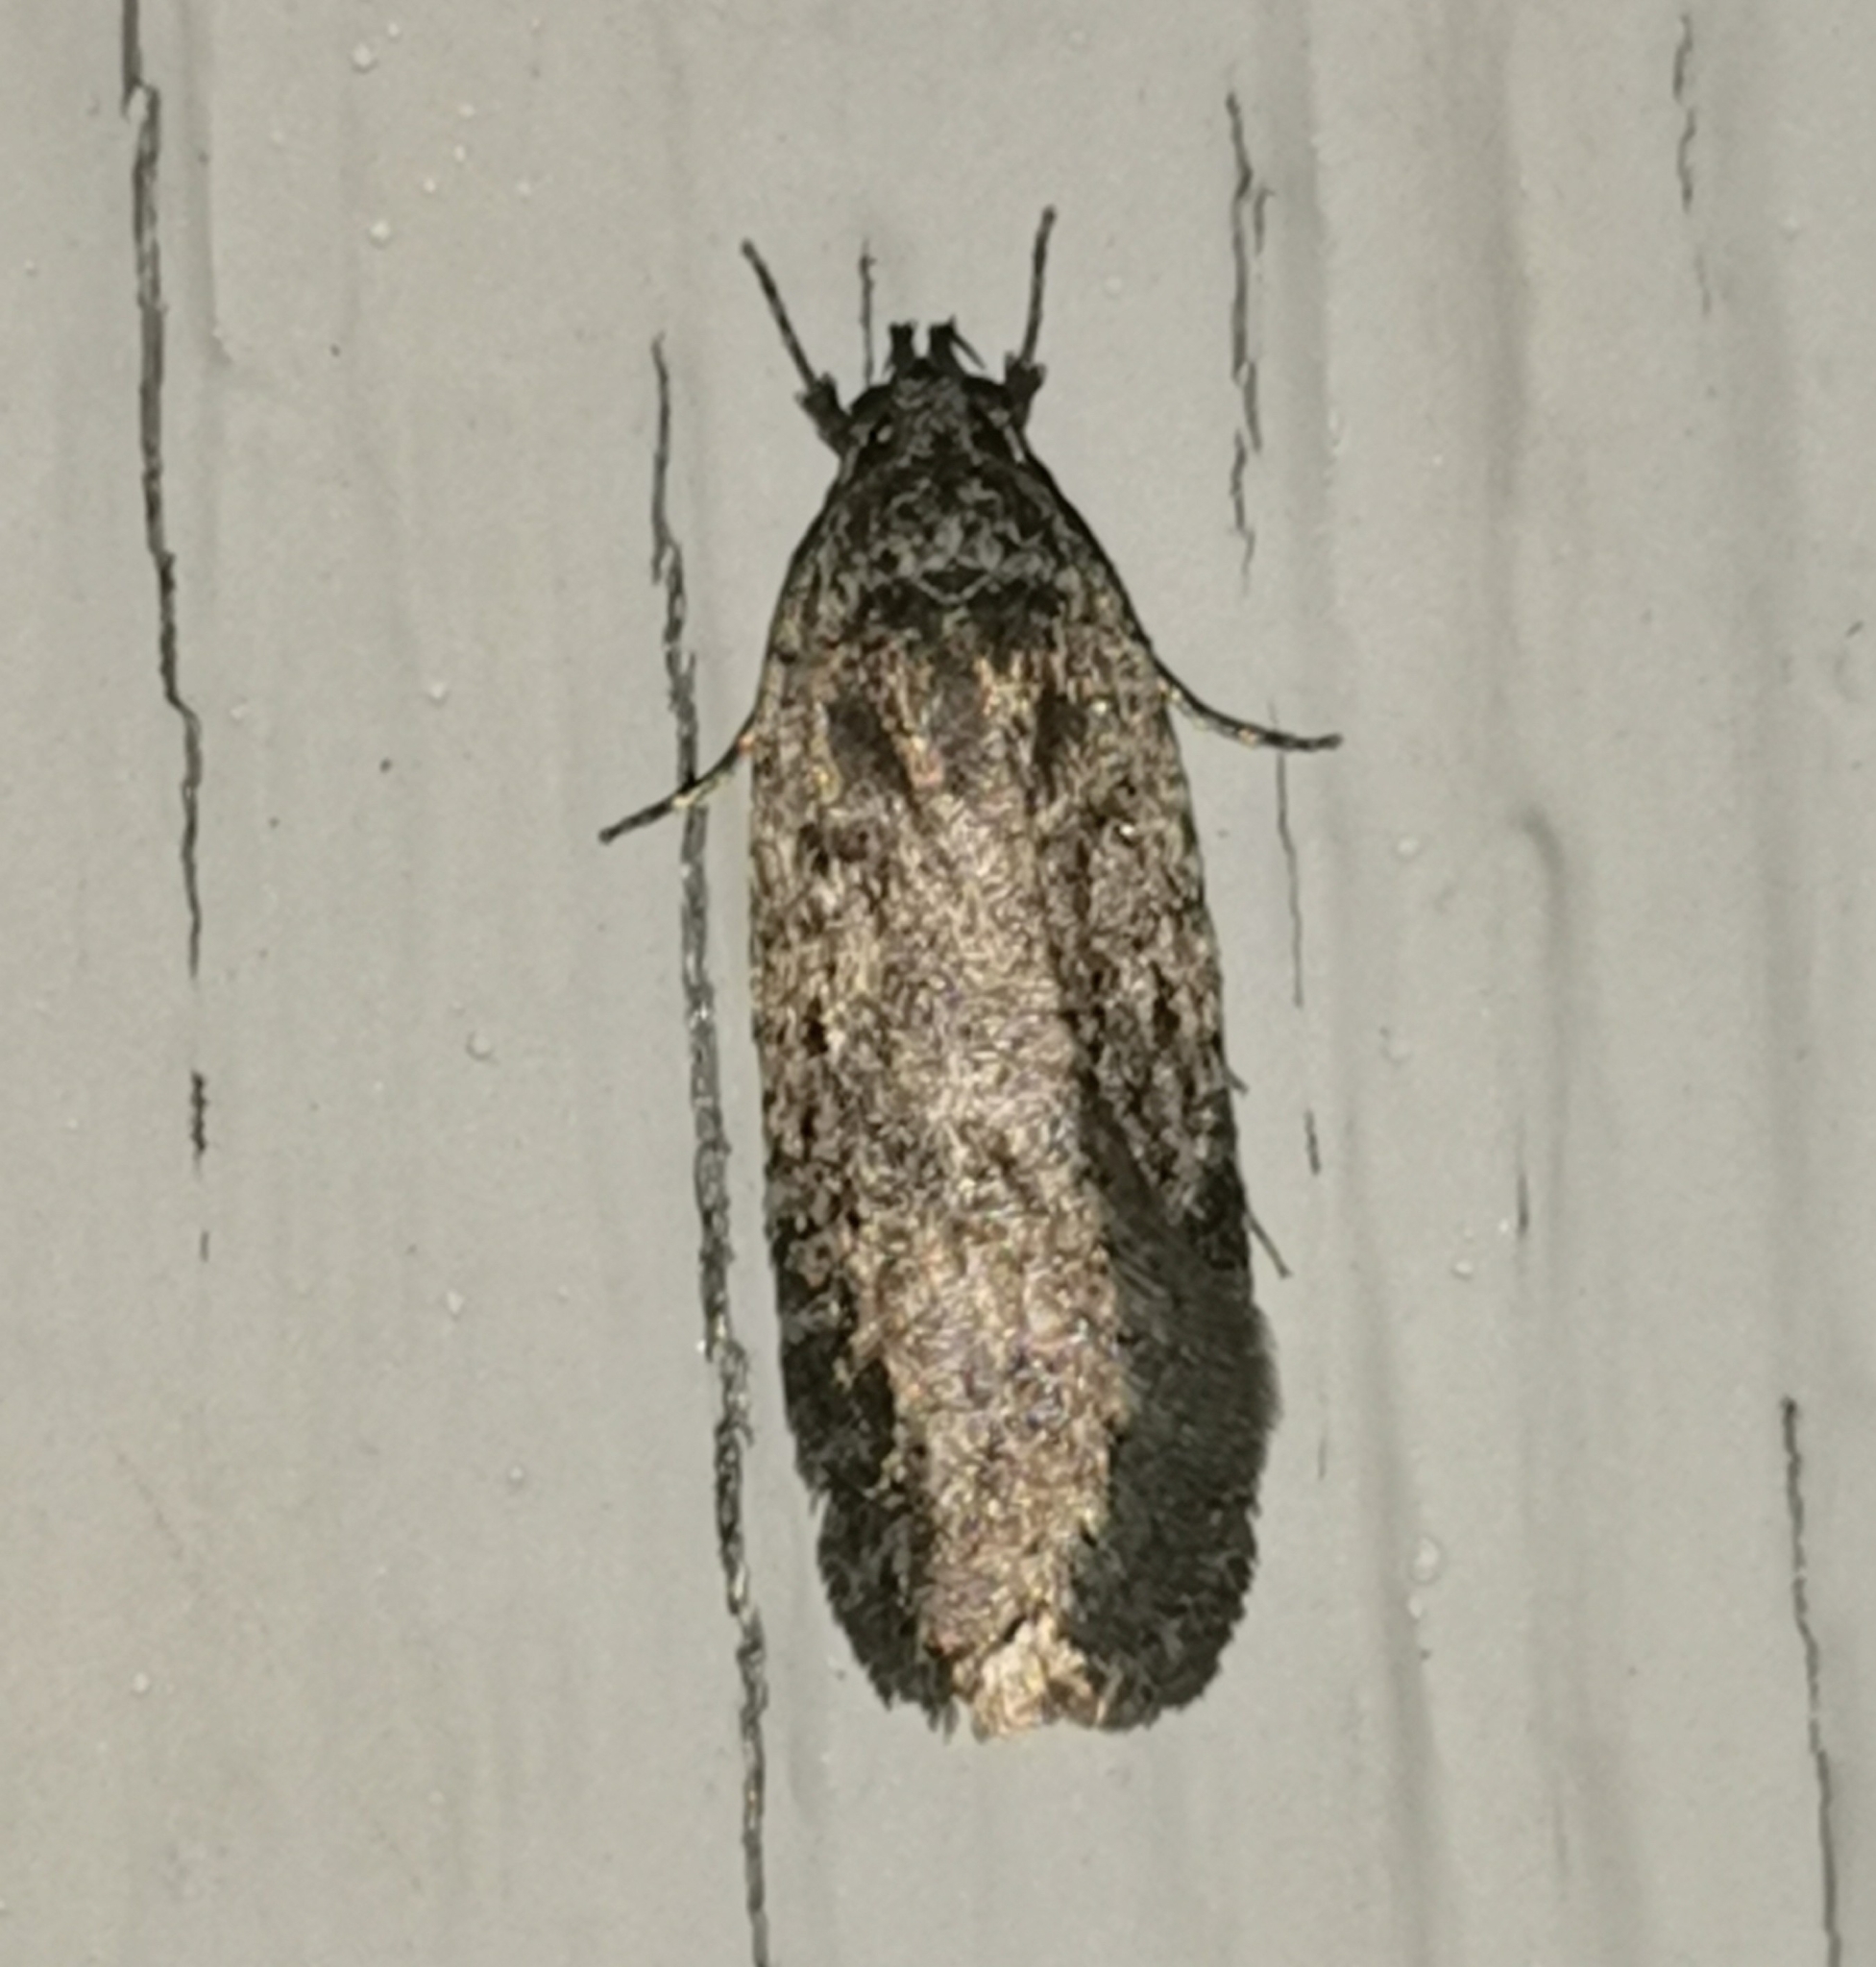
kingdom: Animalia
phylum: Arthropoda
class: Insecta
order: Lepidoptera
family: Depressariidae
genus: Exaeretia
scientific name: Exaeretia ciniflonella
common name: Scotch flat-body
